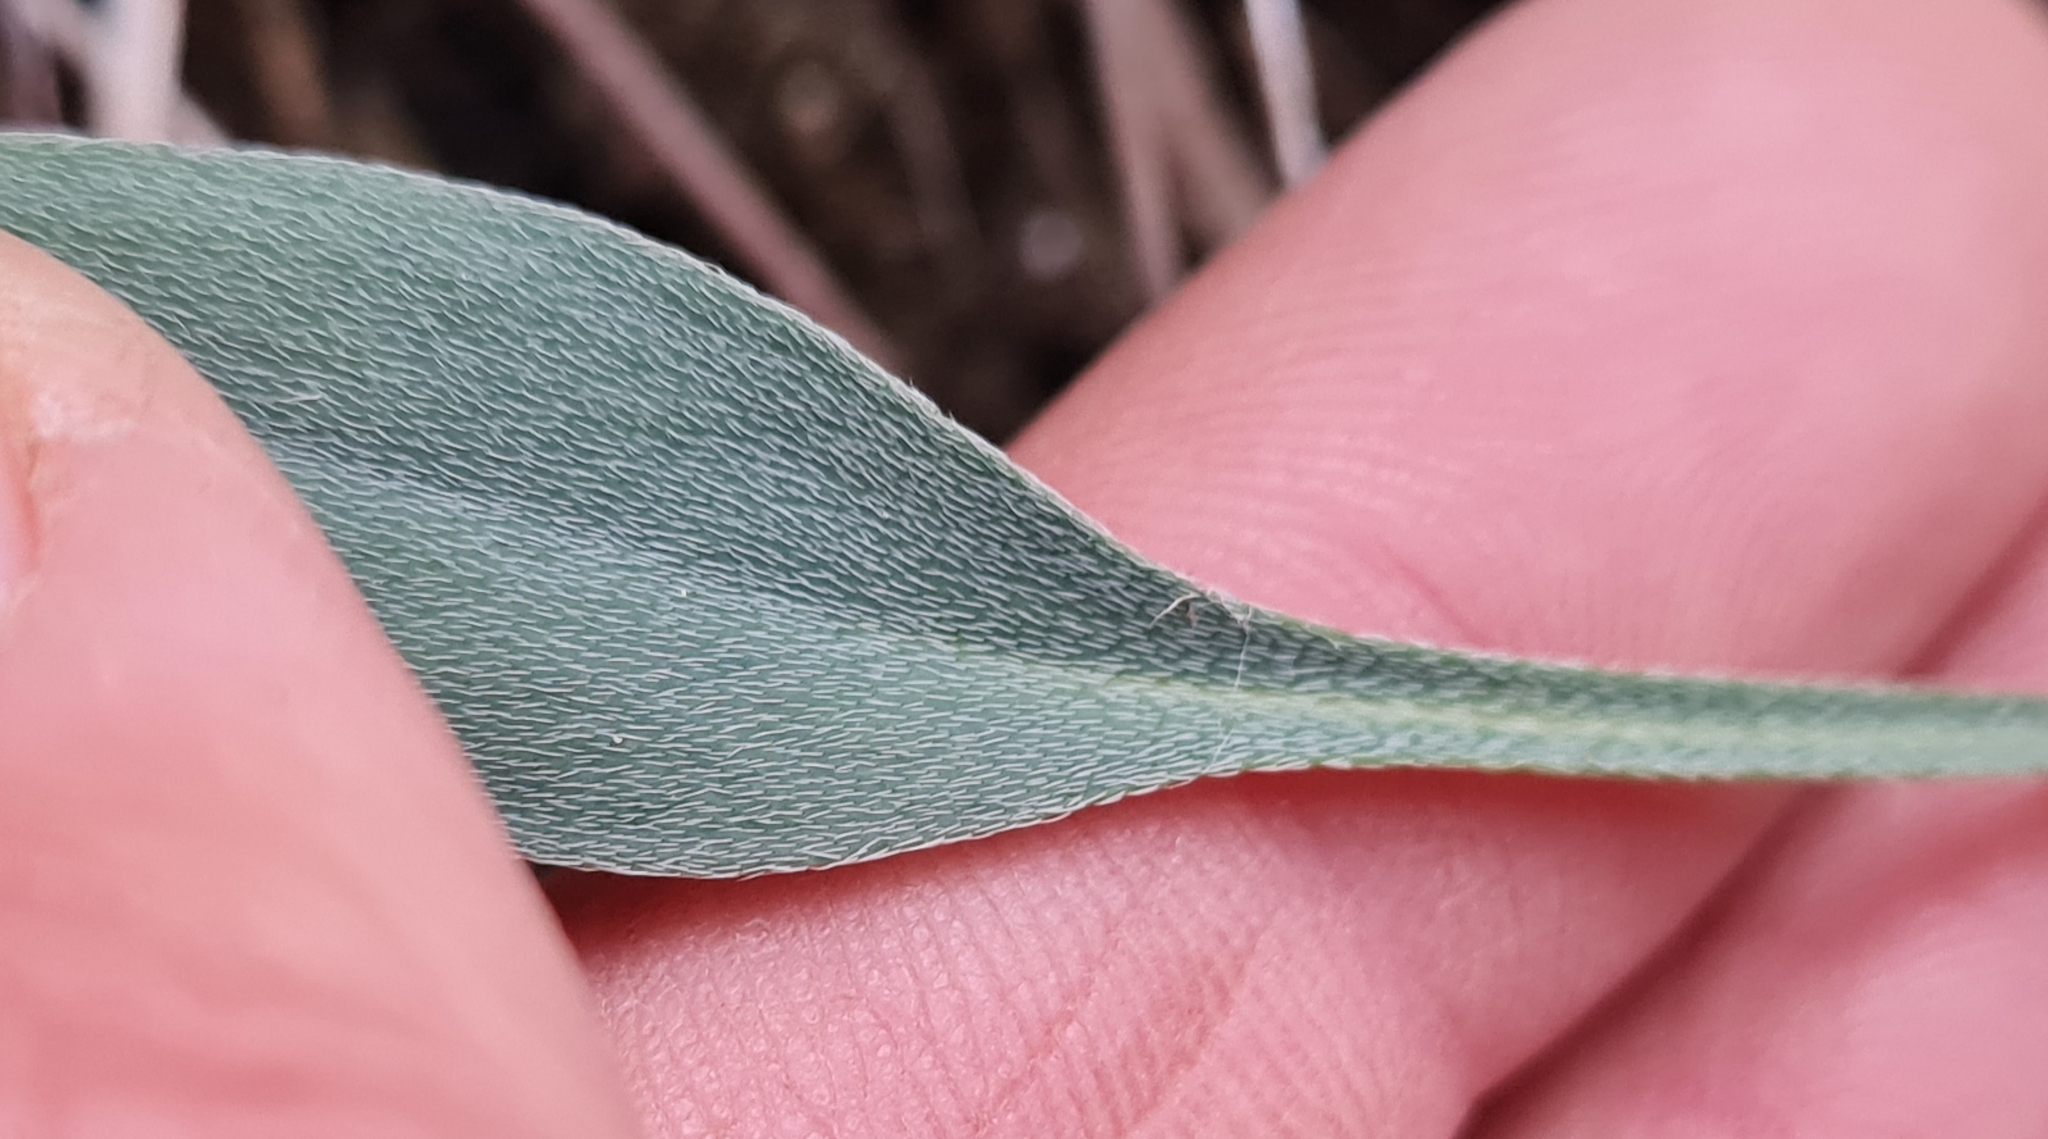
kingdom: Plantae
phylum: Tracheophyta
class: Magnoliopsida
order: Boraginales
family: Boraginaceae
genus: Myosotis
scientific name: Myosotis goyenii
